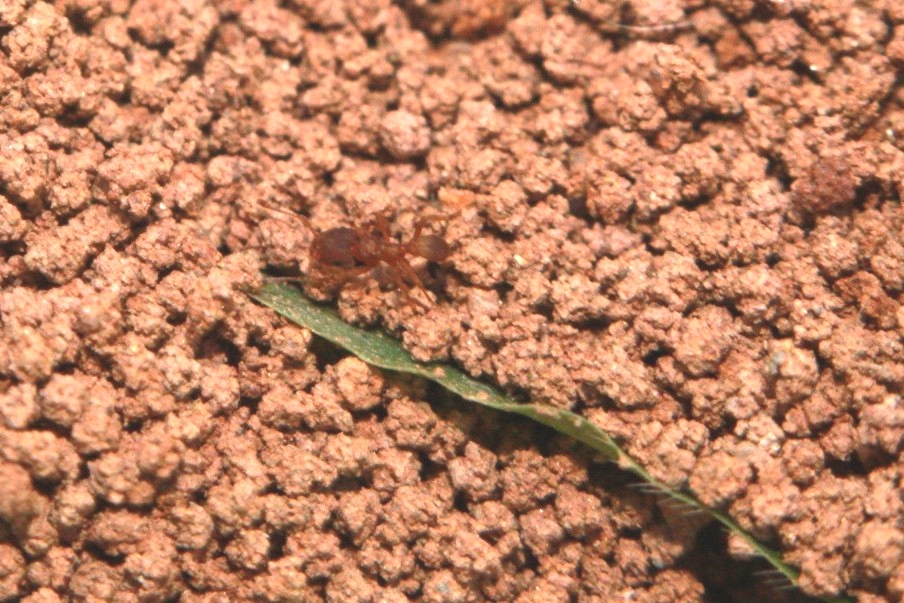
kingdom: Animalia
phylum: Arthropoda
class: Insecta
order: Hymenoptera
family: Formicidae
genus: Mycocepurus
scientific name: Mycocepurus
